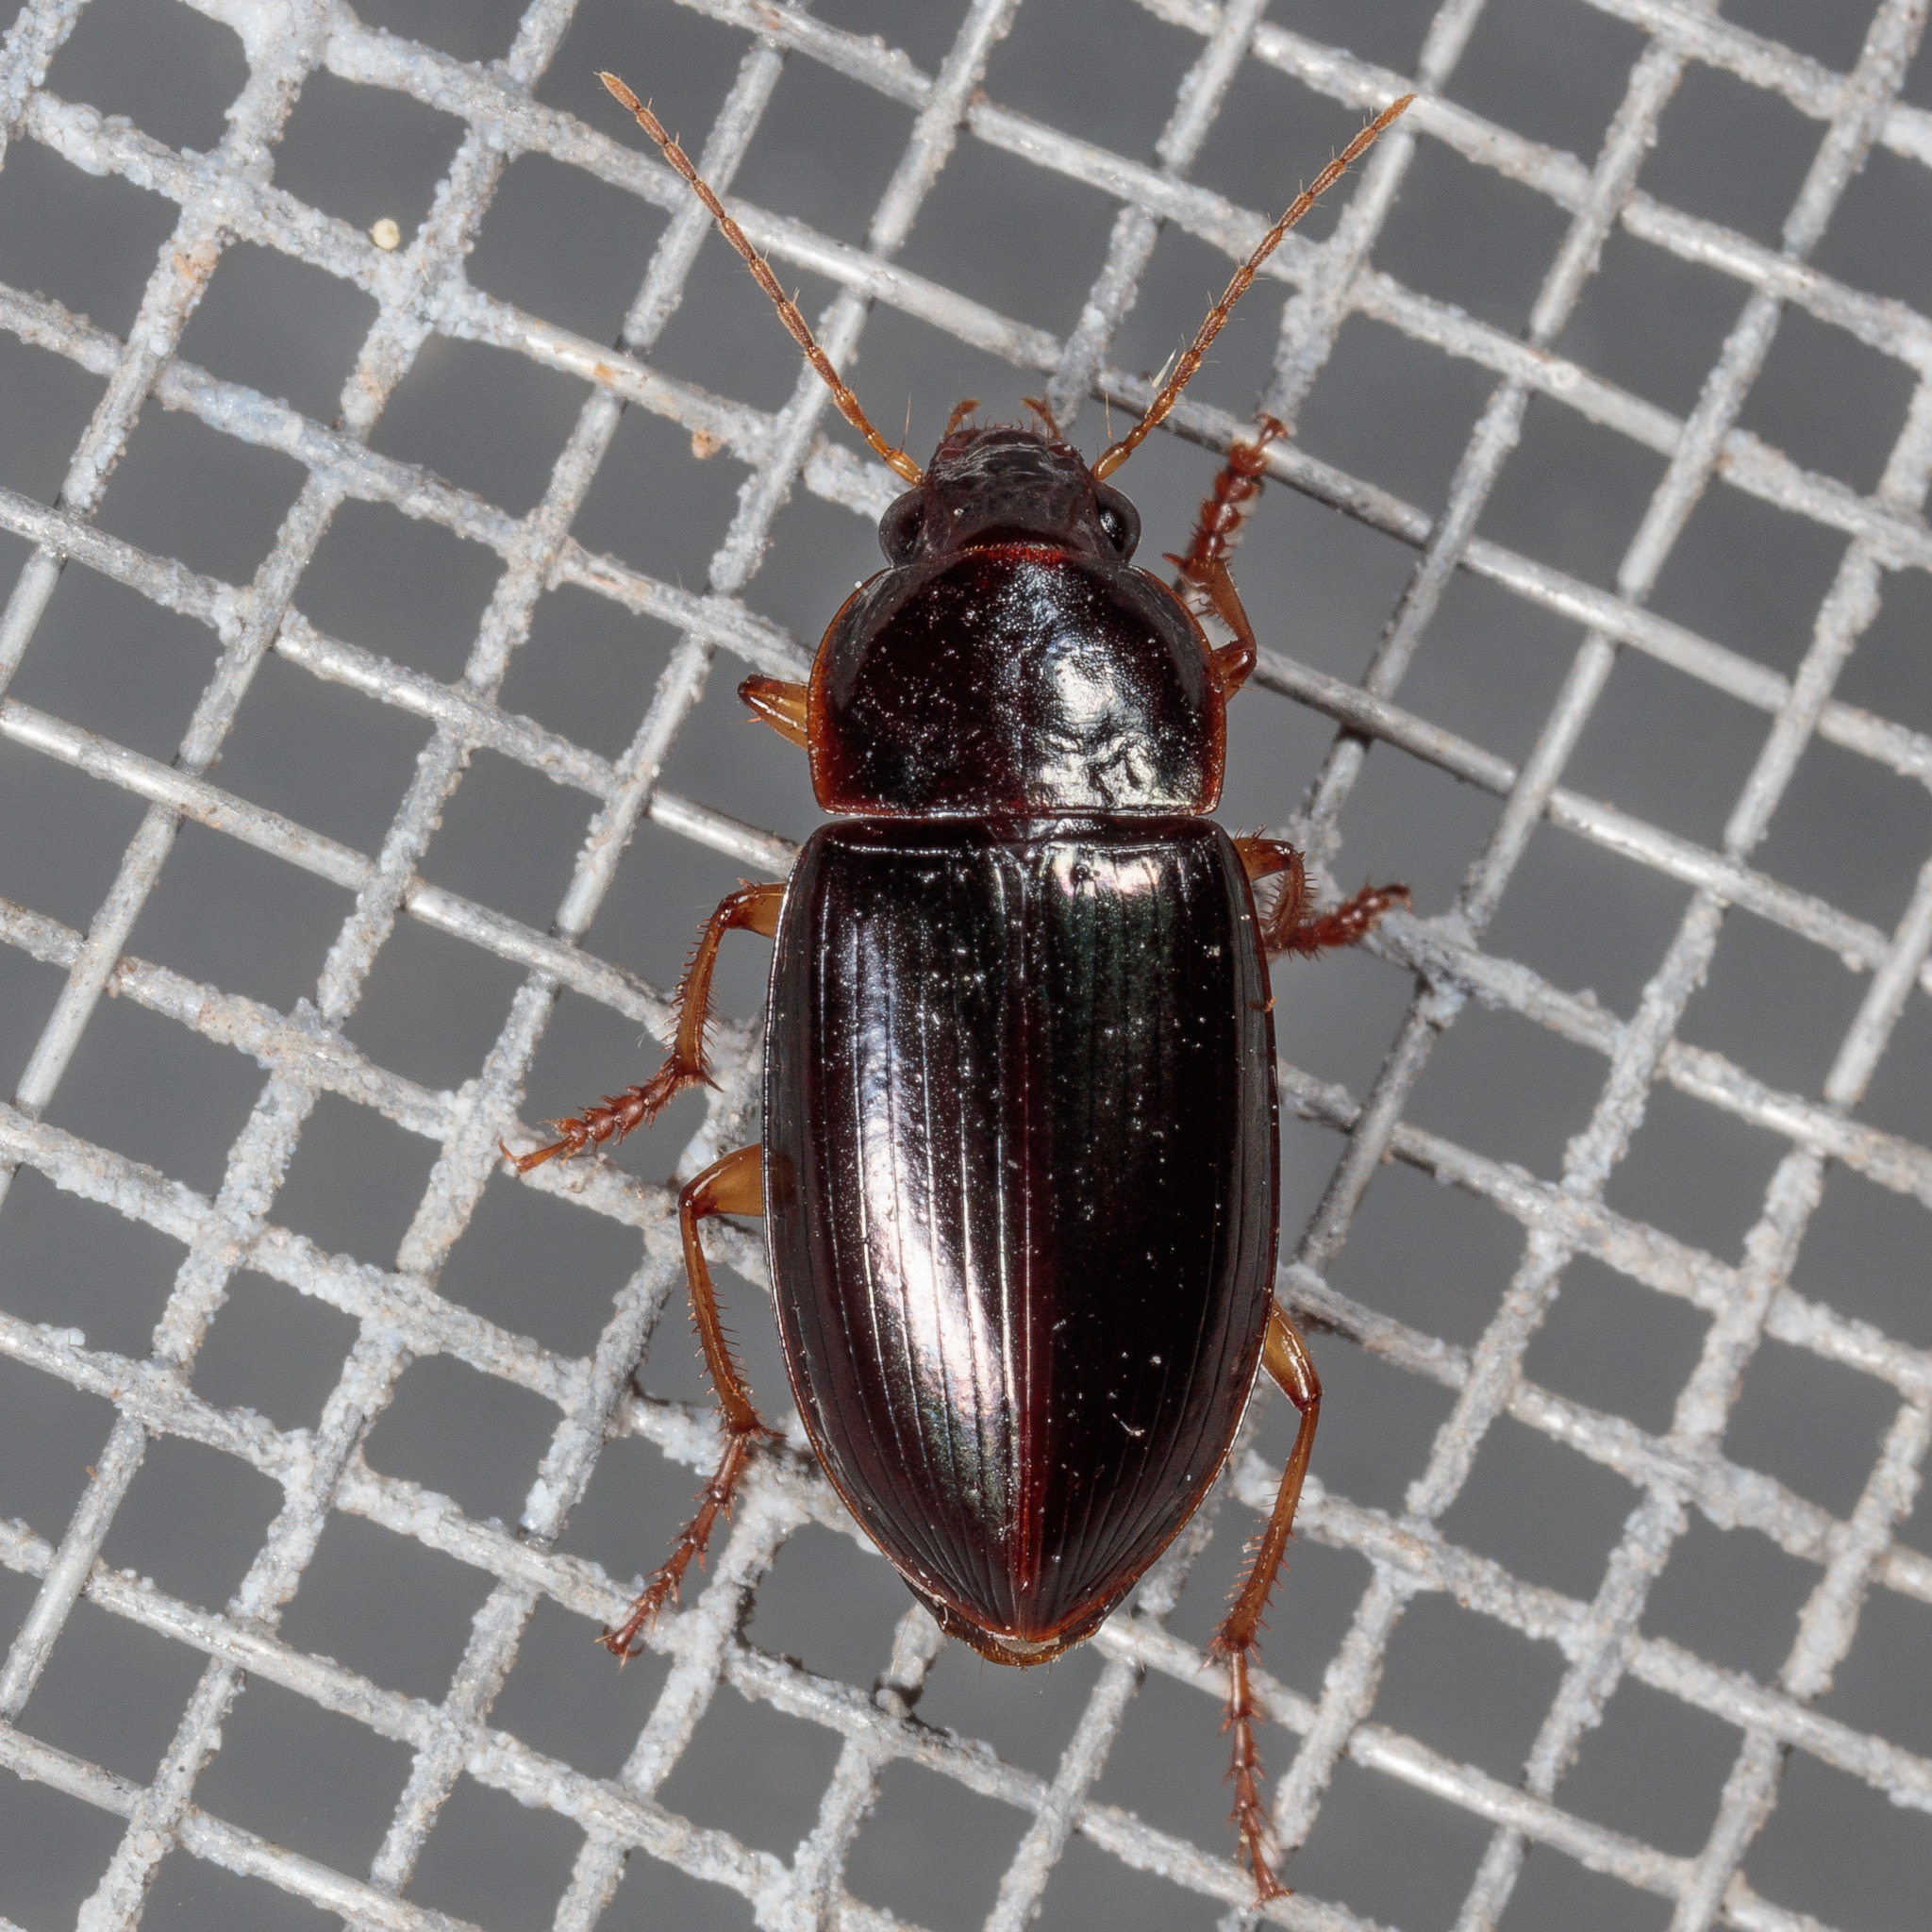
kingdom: Animalia
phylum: Arthropoda
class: Insecta
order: Coleoptera
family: Carabidae
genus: Notiobia
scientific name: Notiobia terminata
